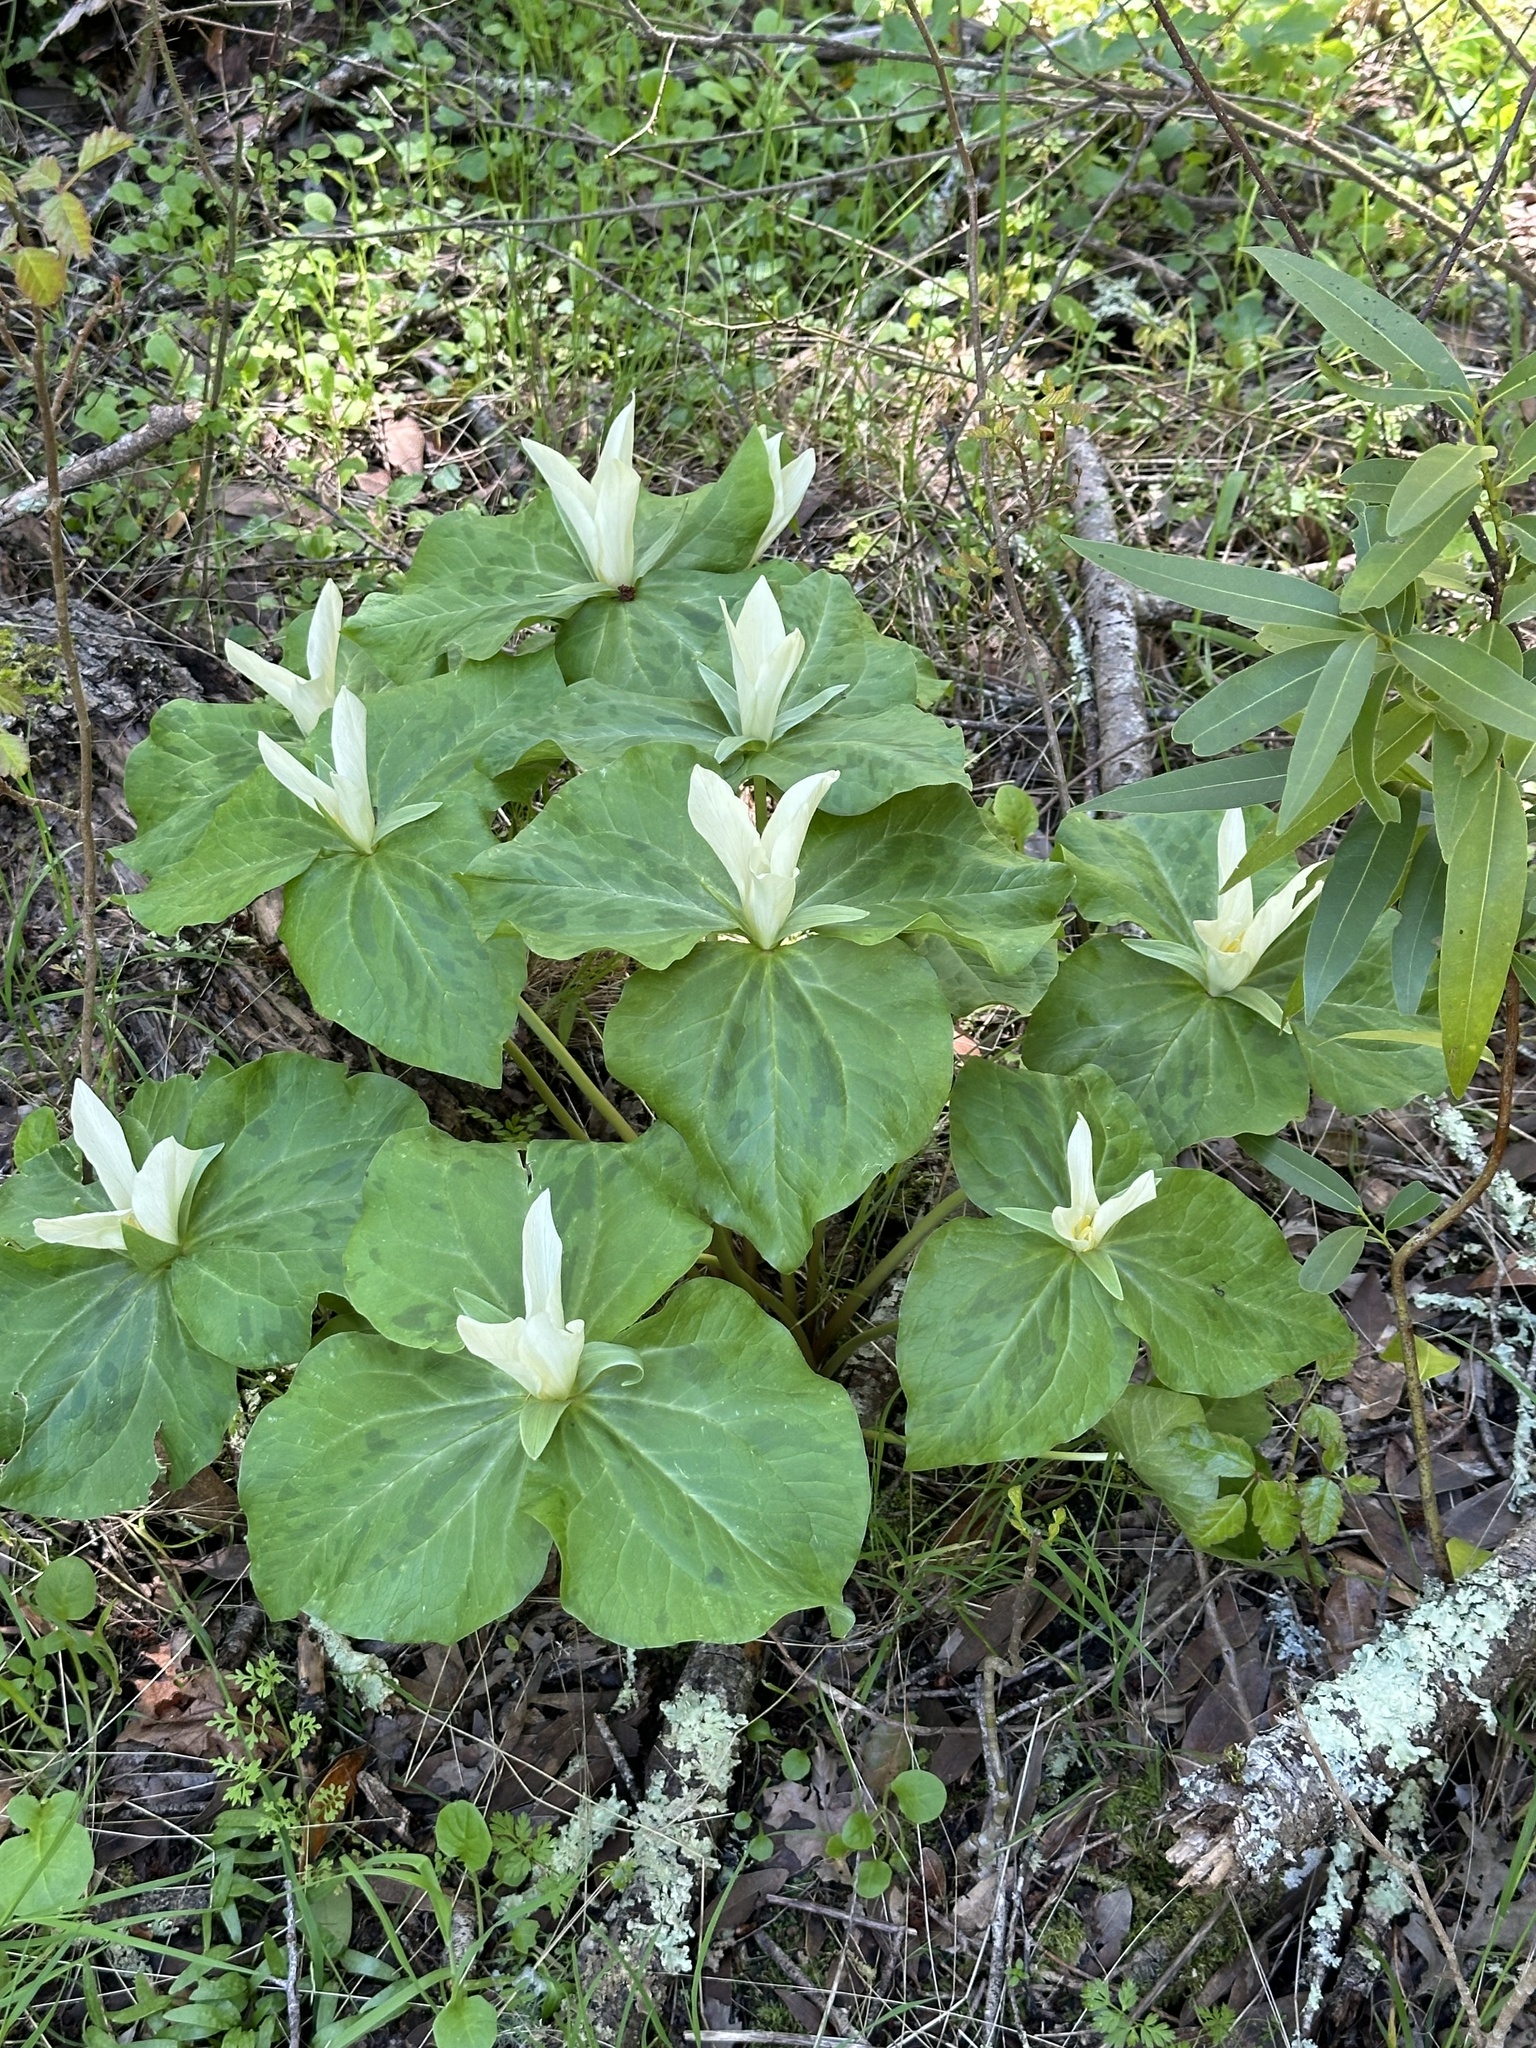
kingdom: Plantae
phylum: Tracheophyta
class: Liliopsida
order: Liliales
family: Melanthiaceae
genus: Trillium
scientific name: Trillium albidum
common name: Freeman's trillium
